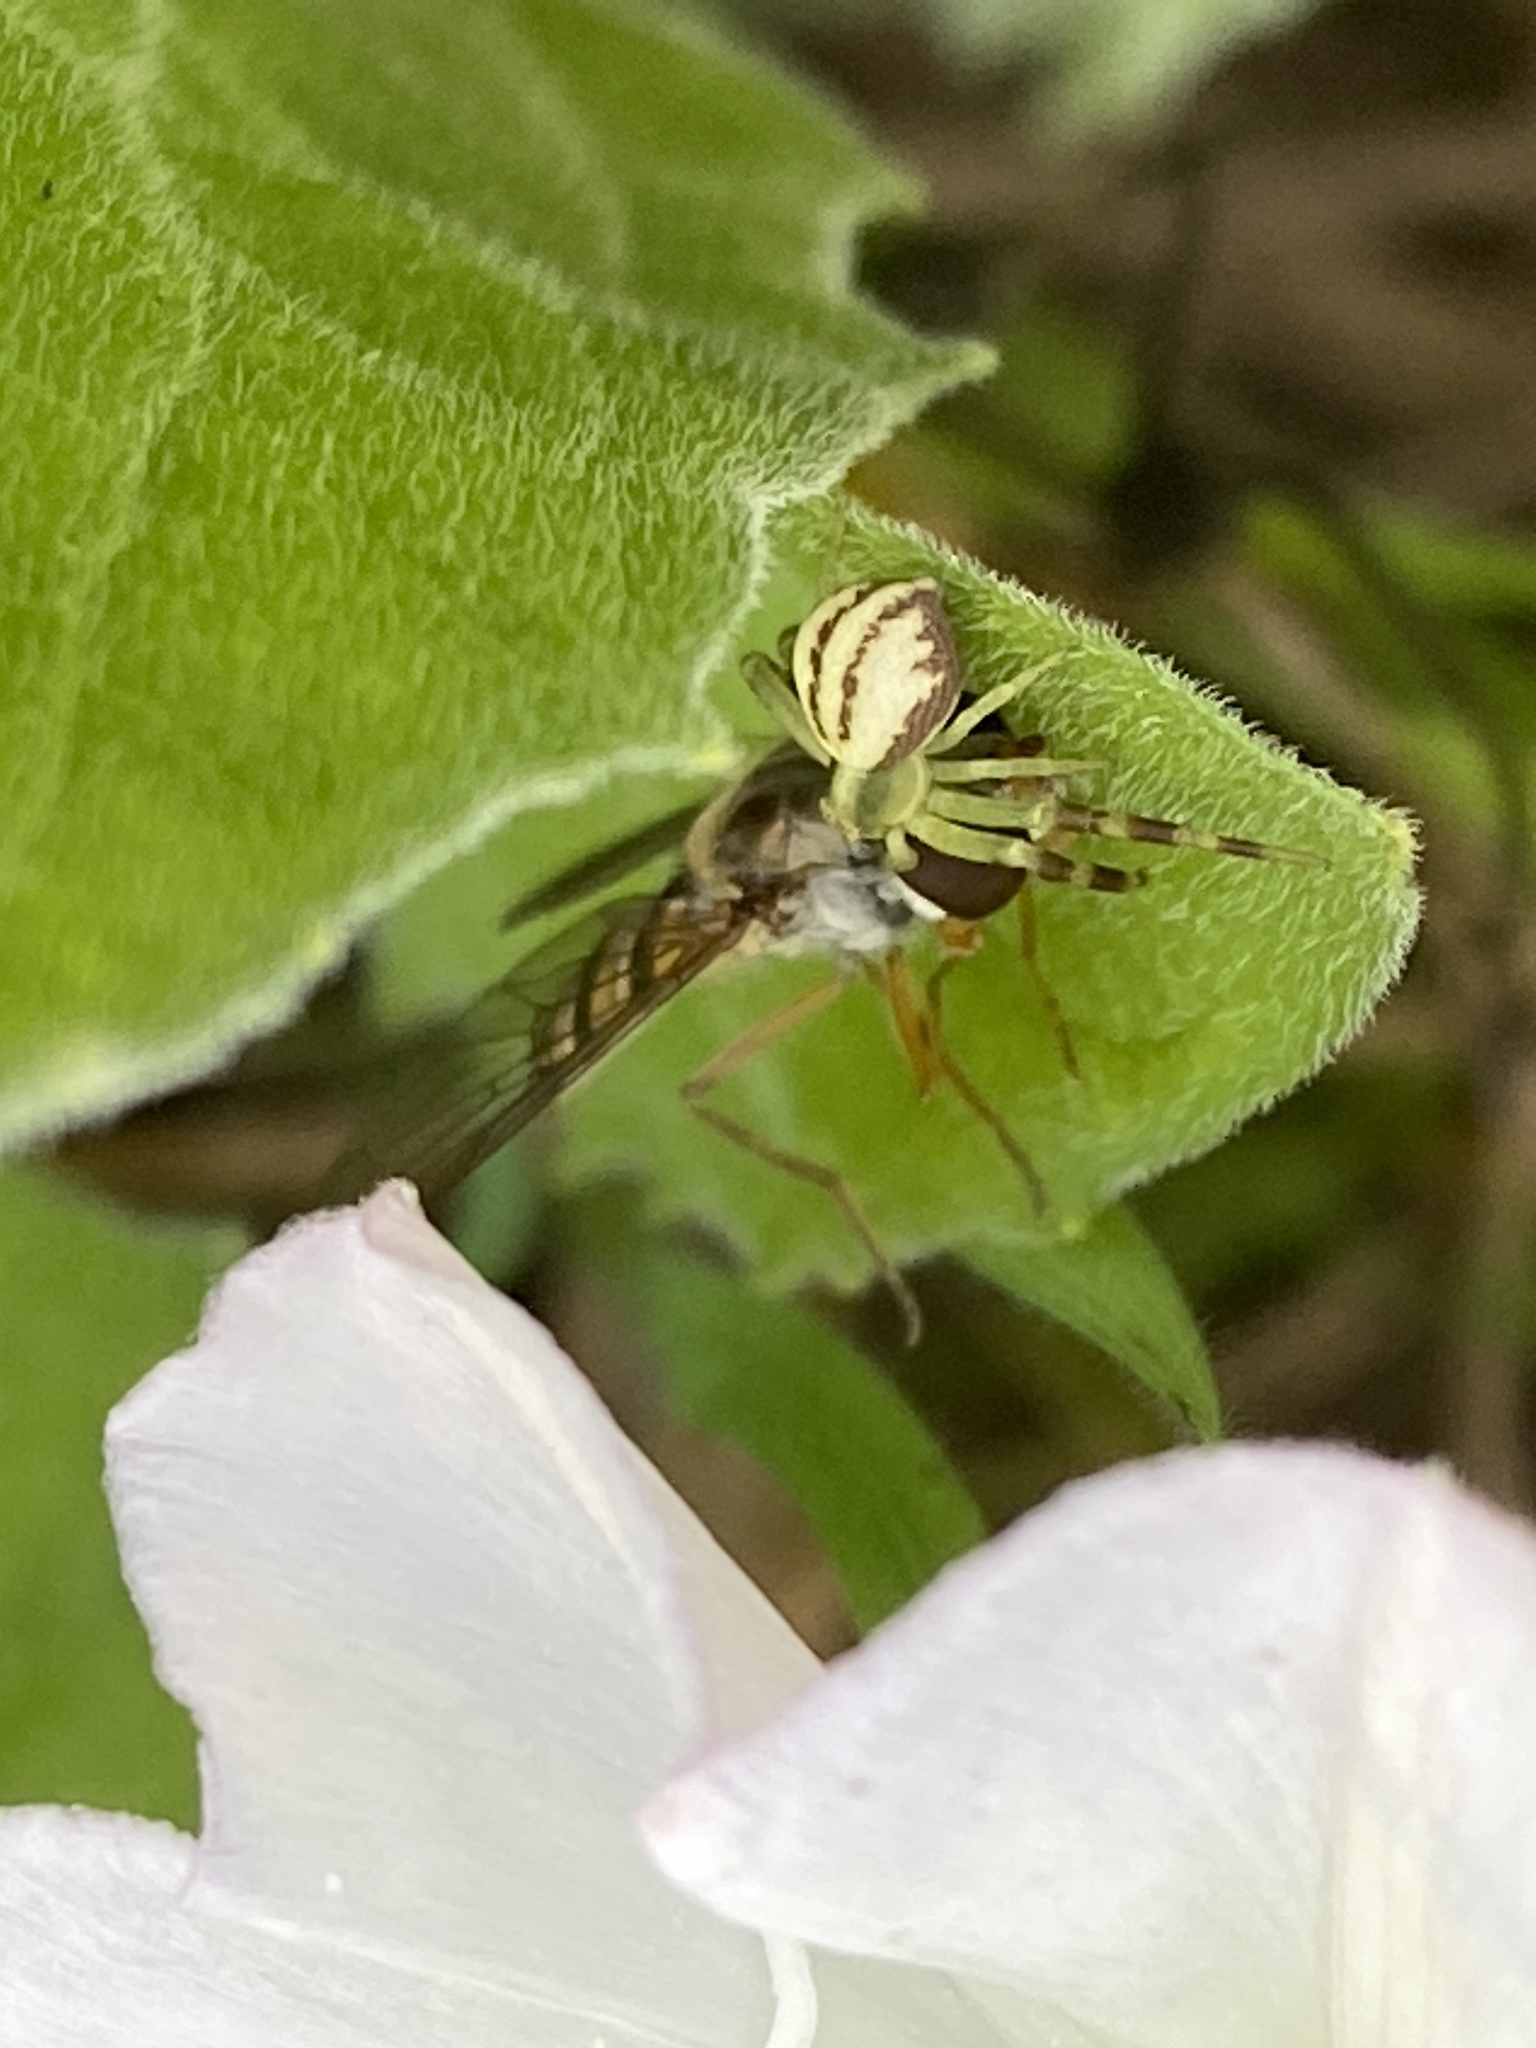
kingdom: Animalia
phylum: Arthropoda
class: Arachnida
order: Araneae
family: Thomisidae
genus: Misumena
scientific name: Misumena vatia
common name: Goldenrod crab spider
